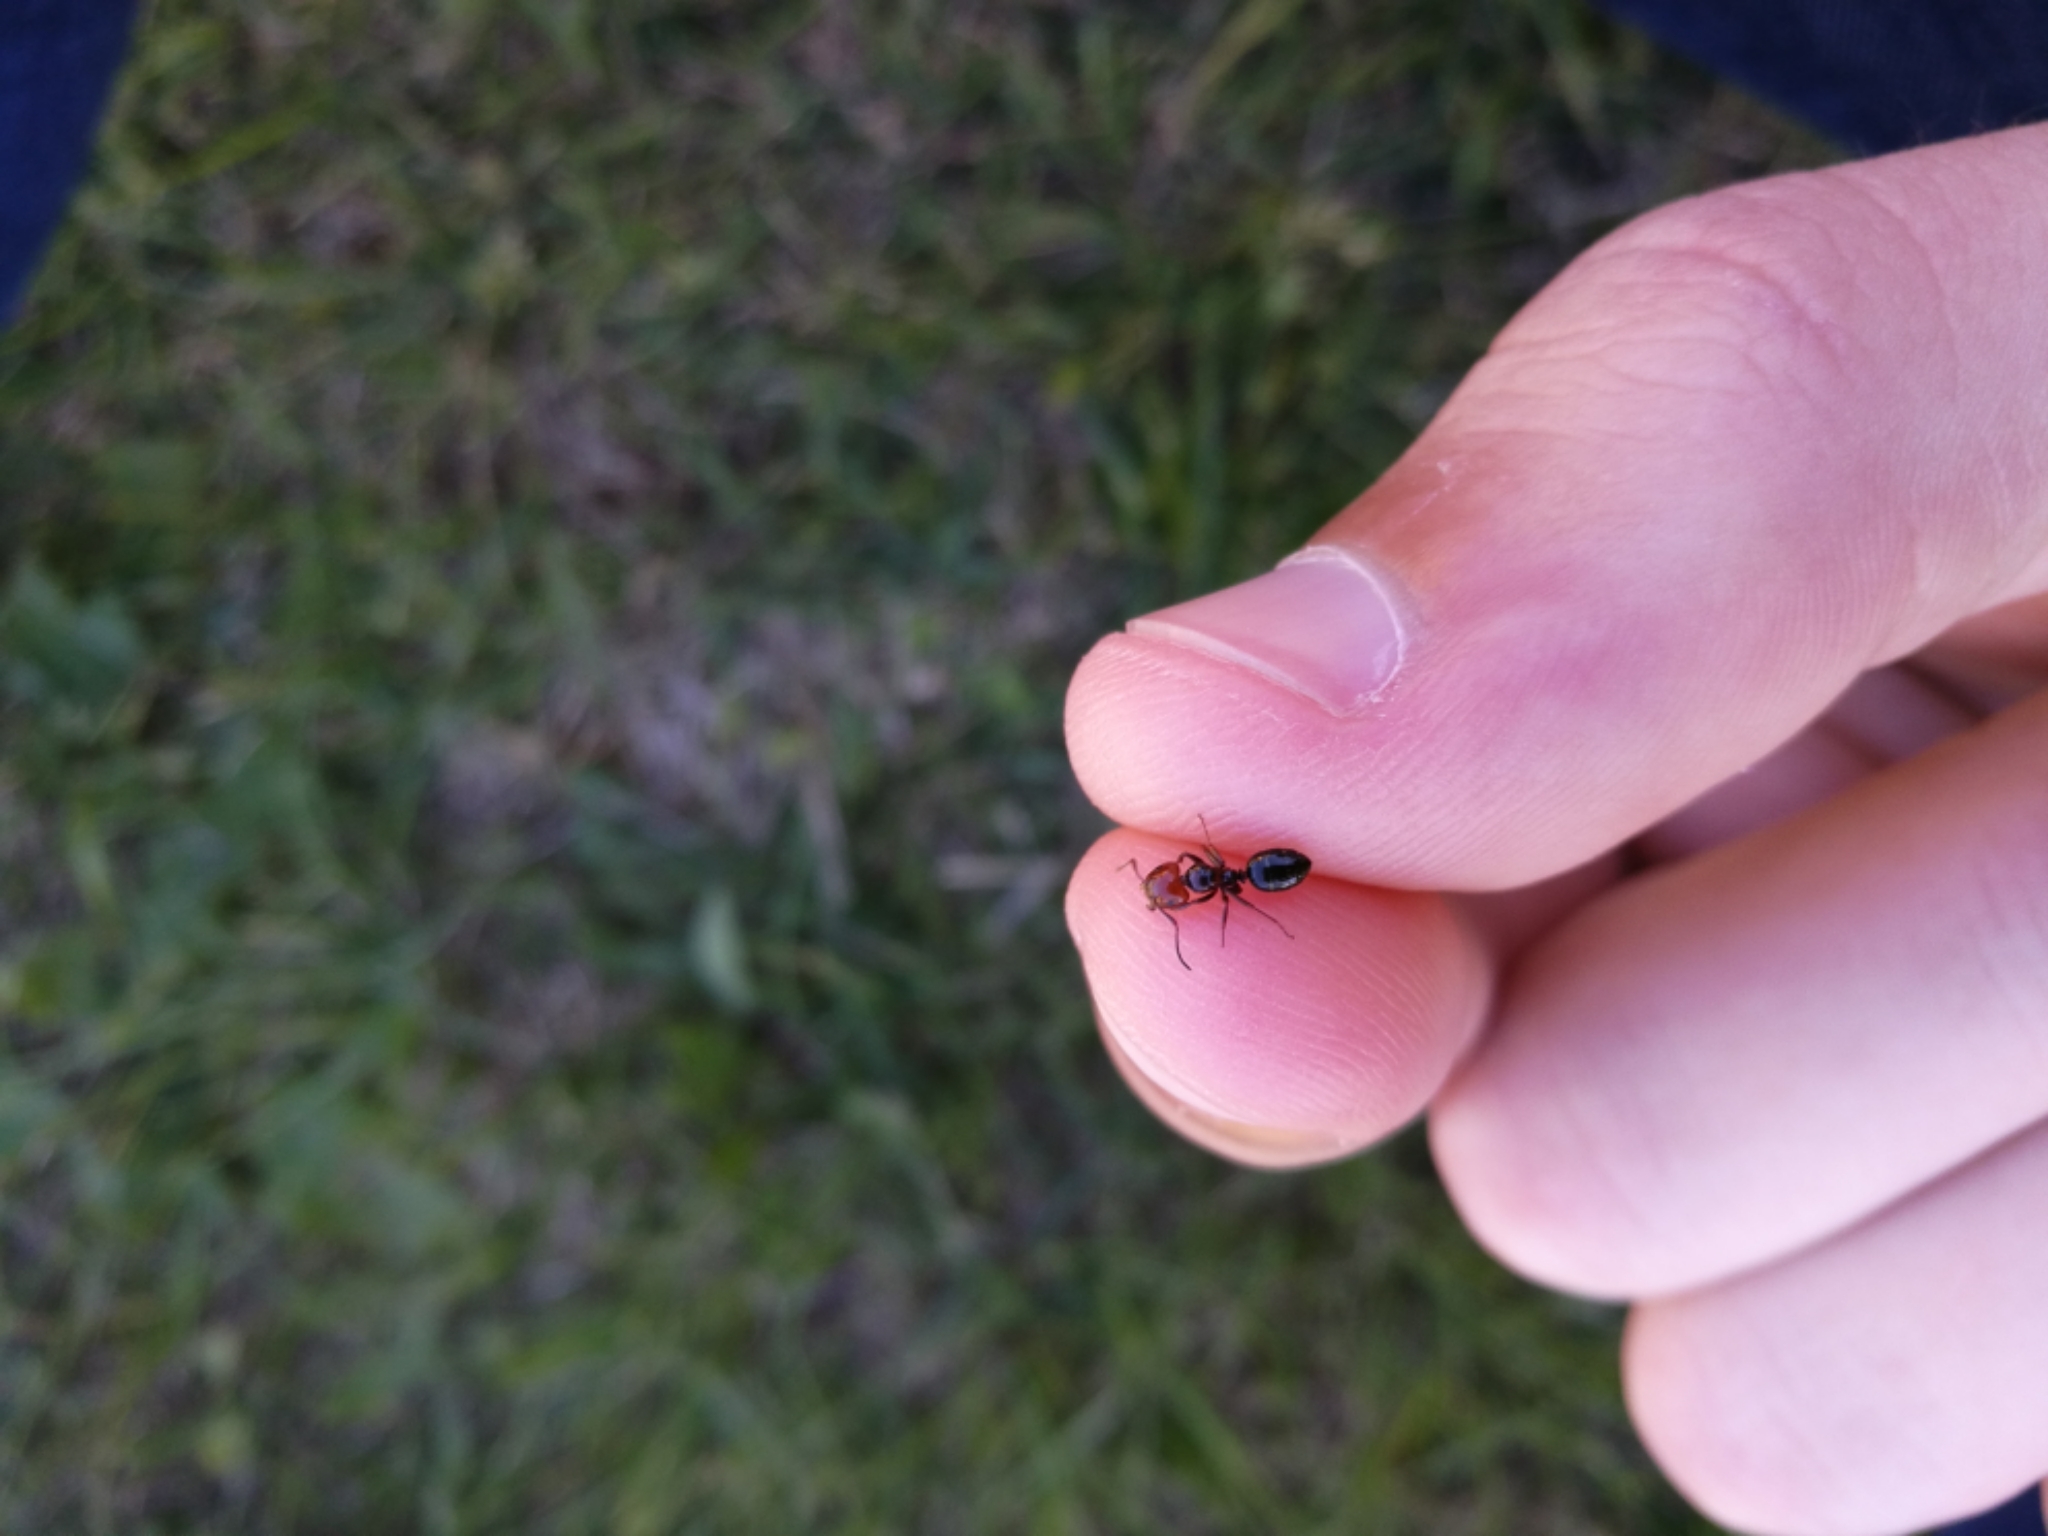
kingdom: Animalia
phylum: Arthropoda
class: Insecta
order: Hymenoptera
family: Formicidae
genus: Camponotus
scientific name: Camponotus lateralis
